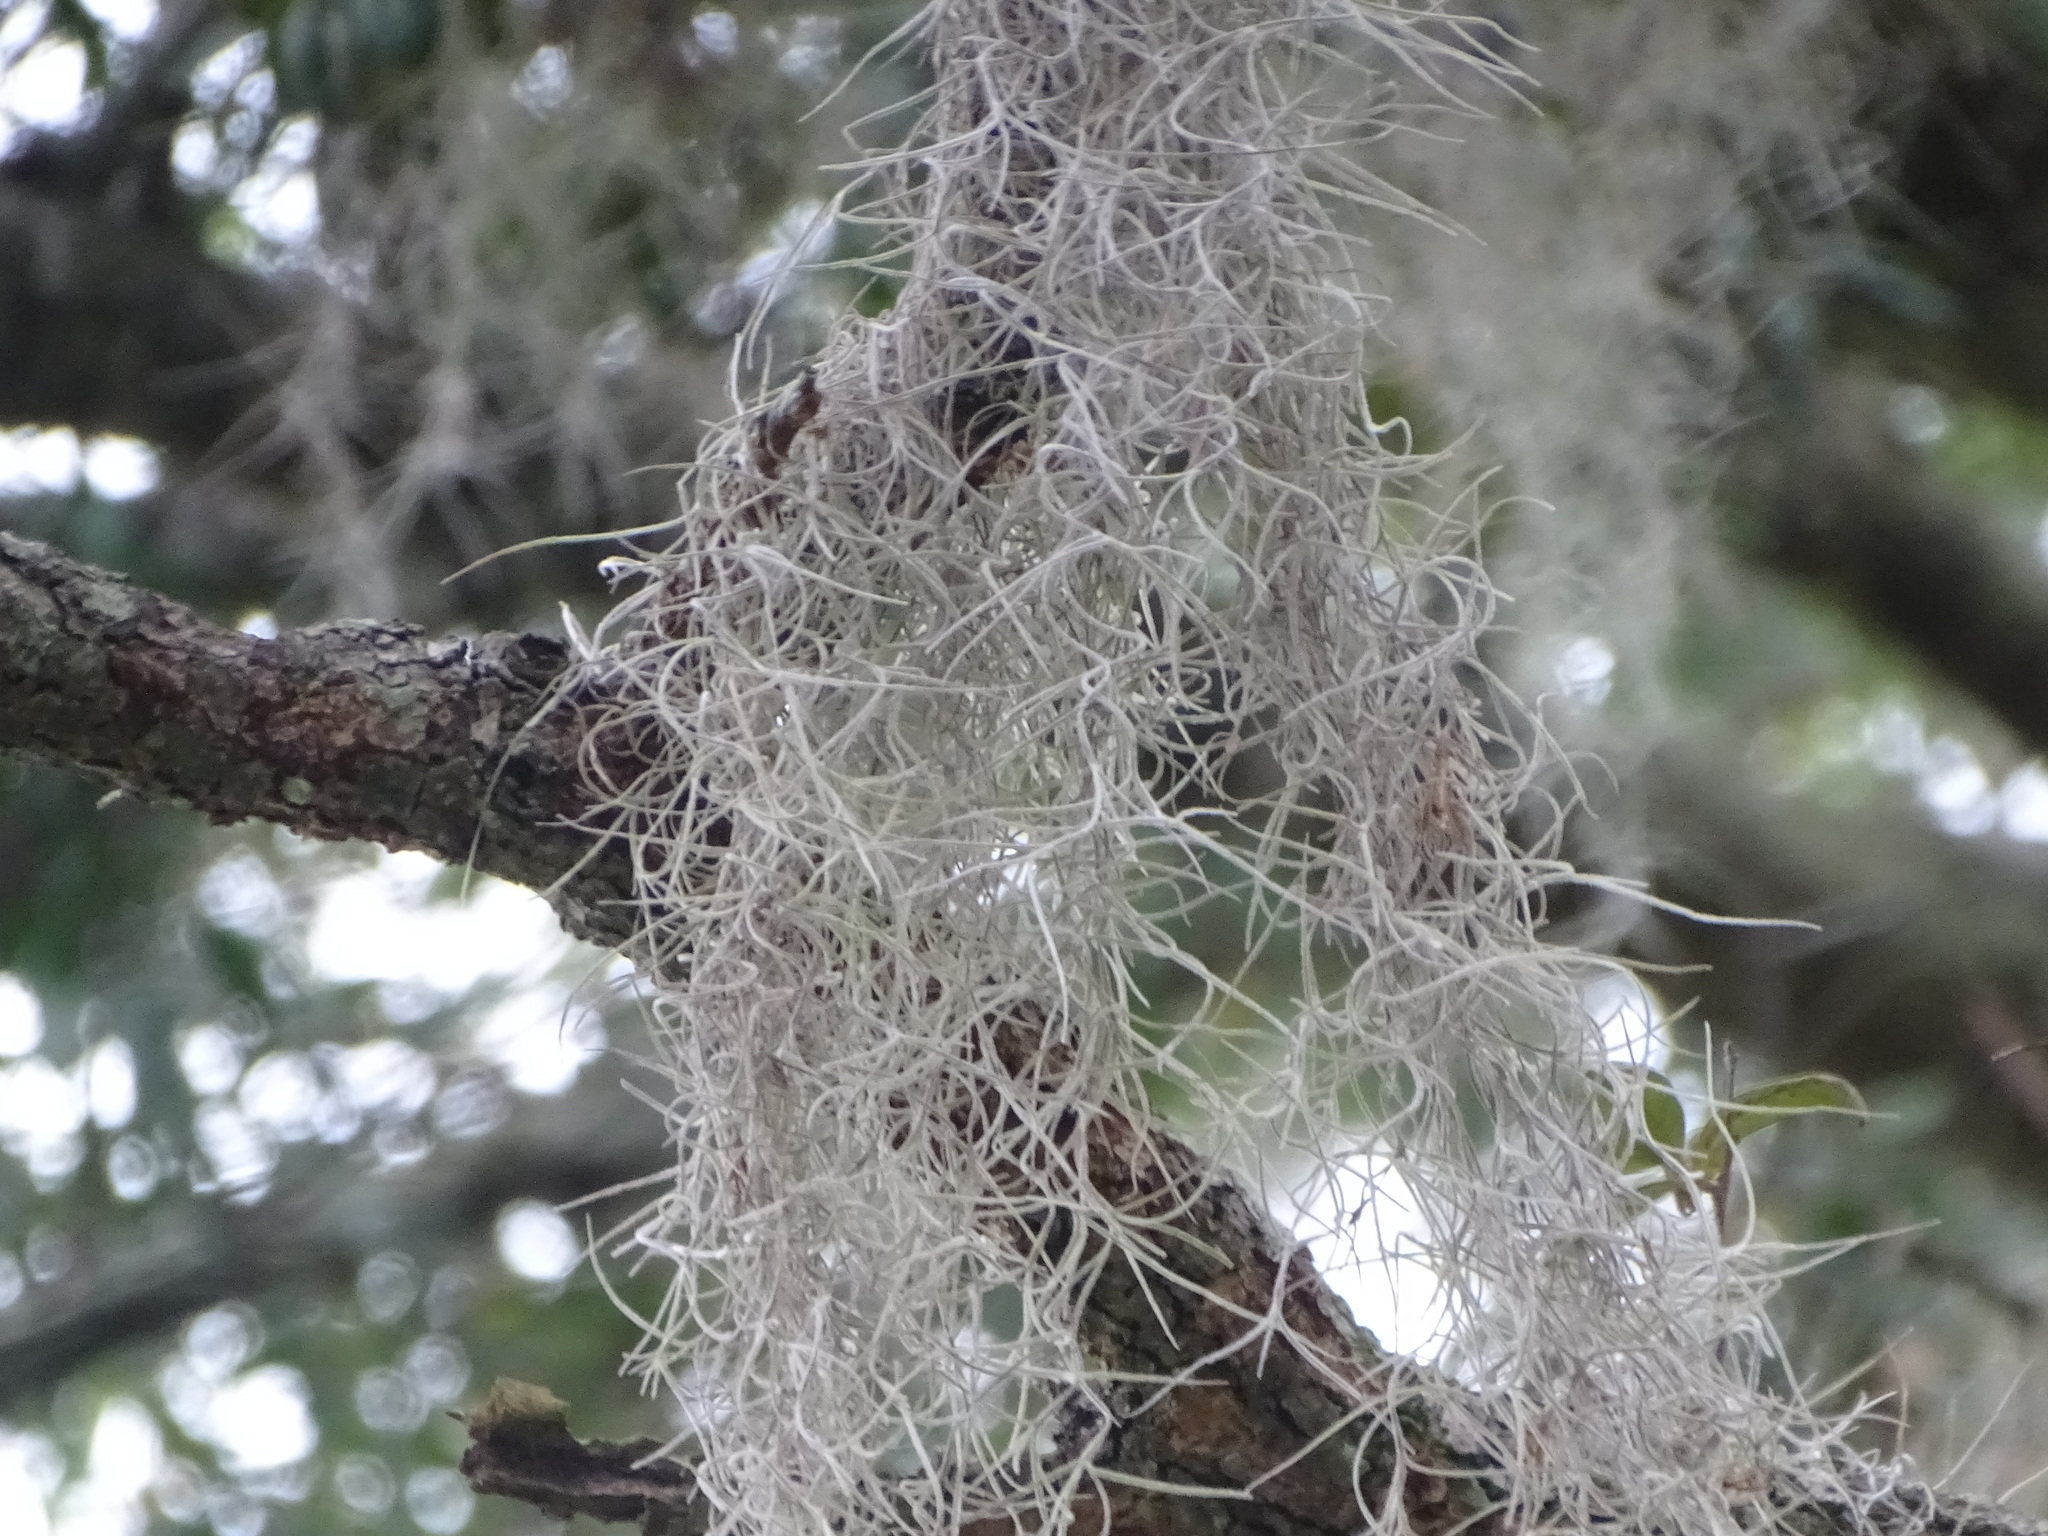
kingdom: Plantae
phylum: Tracheophyta
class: Liliopsida
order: Poales
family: Bromeliaceae
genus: Tillandsia
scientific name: Tillandsia usneoides
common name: Spanish moss
